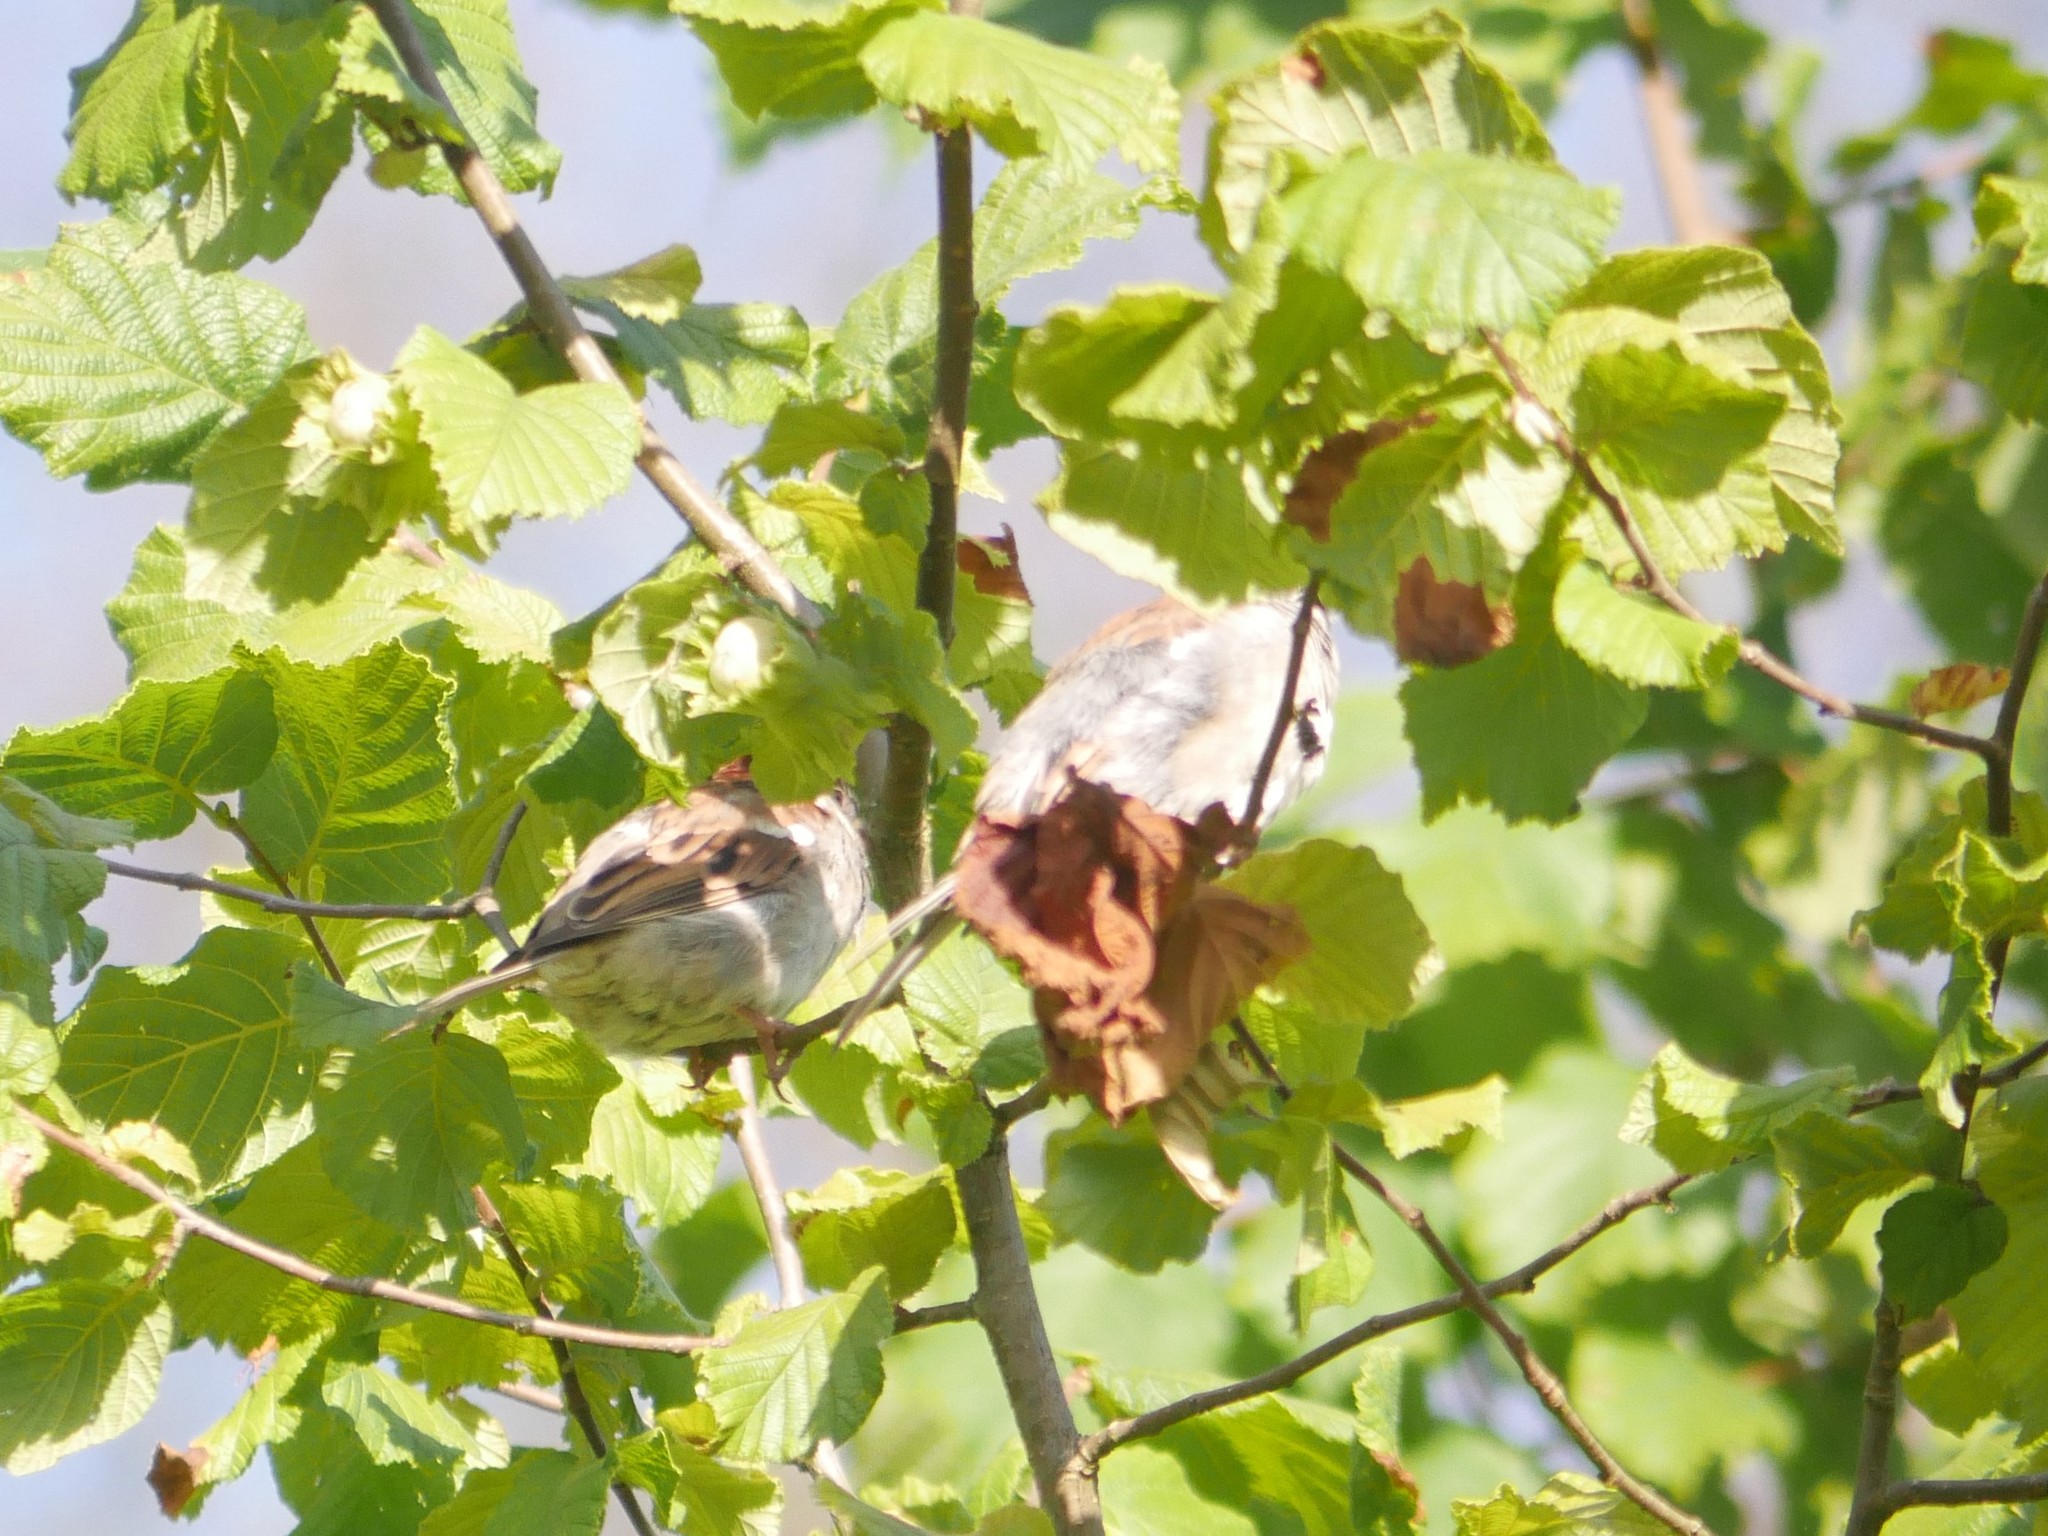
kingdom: Animalia
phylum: Chordata
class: Aves
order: Passeriformes
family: Passeridae
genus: Passer
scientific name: Passer domesticus
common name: House sparrow
